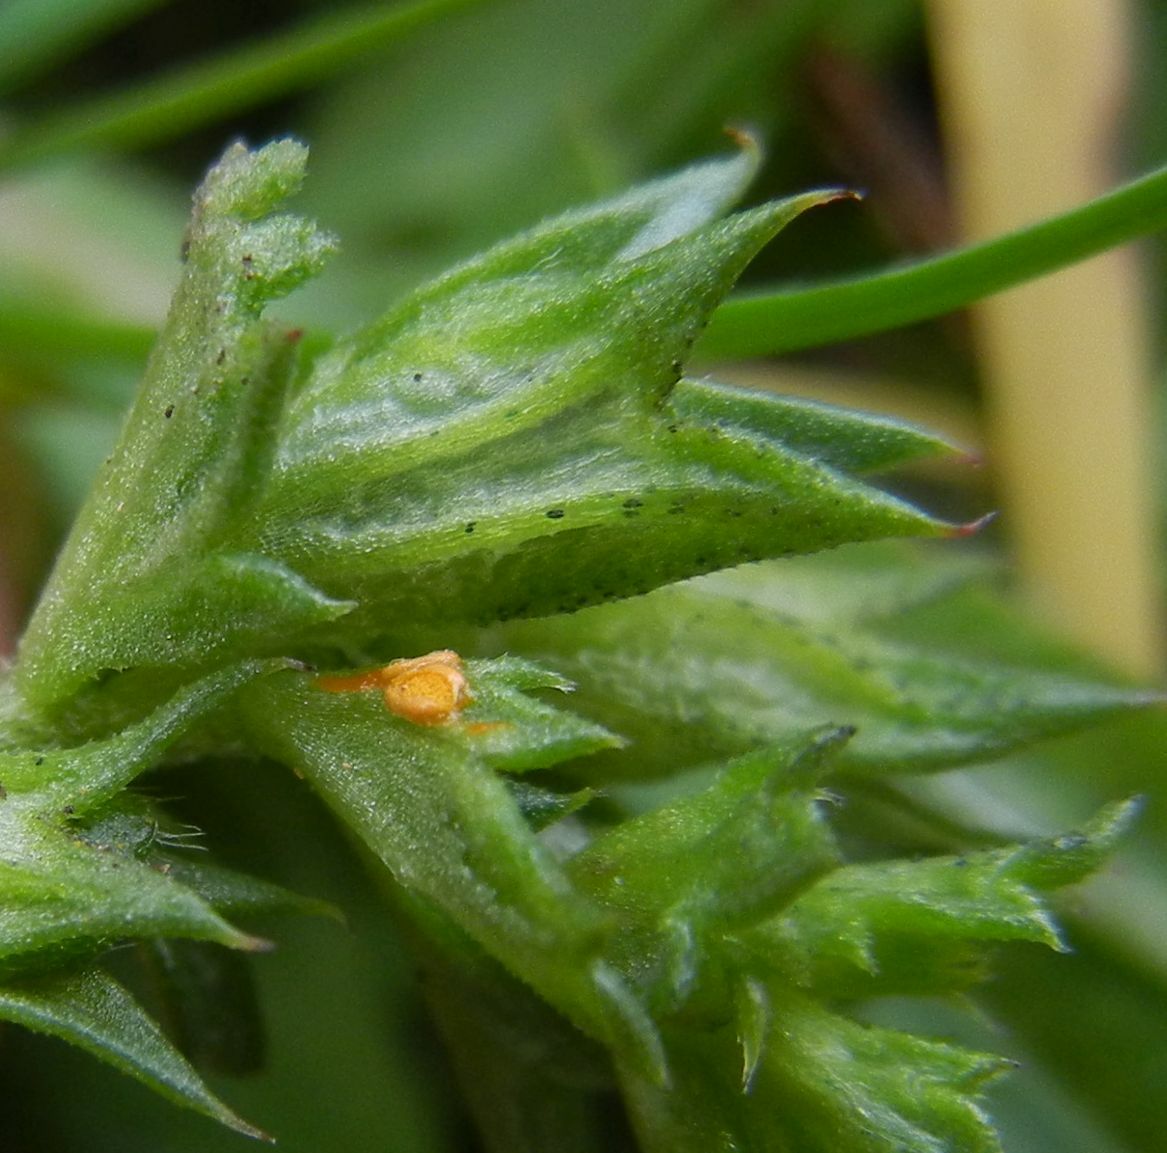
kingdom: Fungi
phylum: Basidiomycota
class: Pucciniomycetes
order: Pucciniales
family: Coleosporiaceae
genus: Coleosporium
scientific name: Coleosporium euphrasiae
